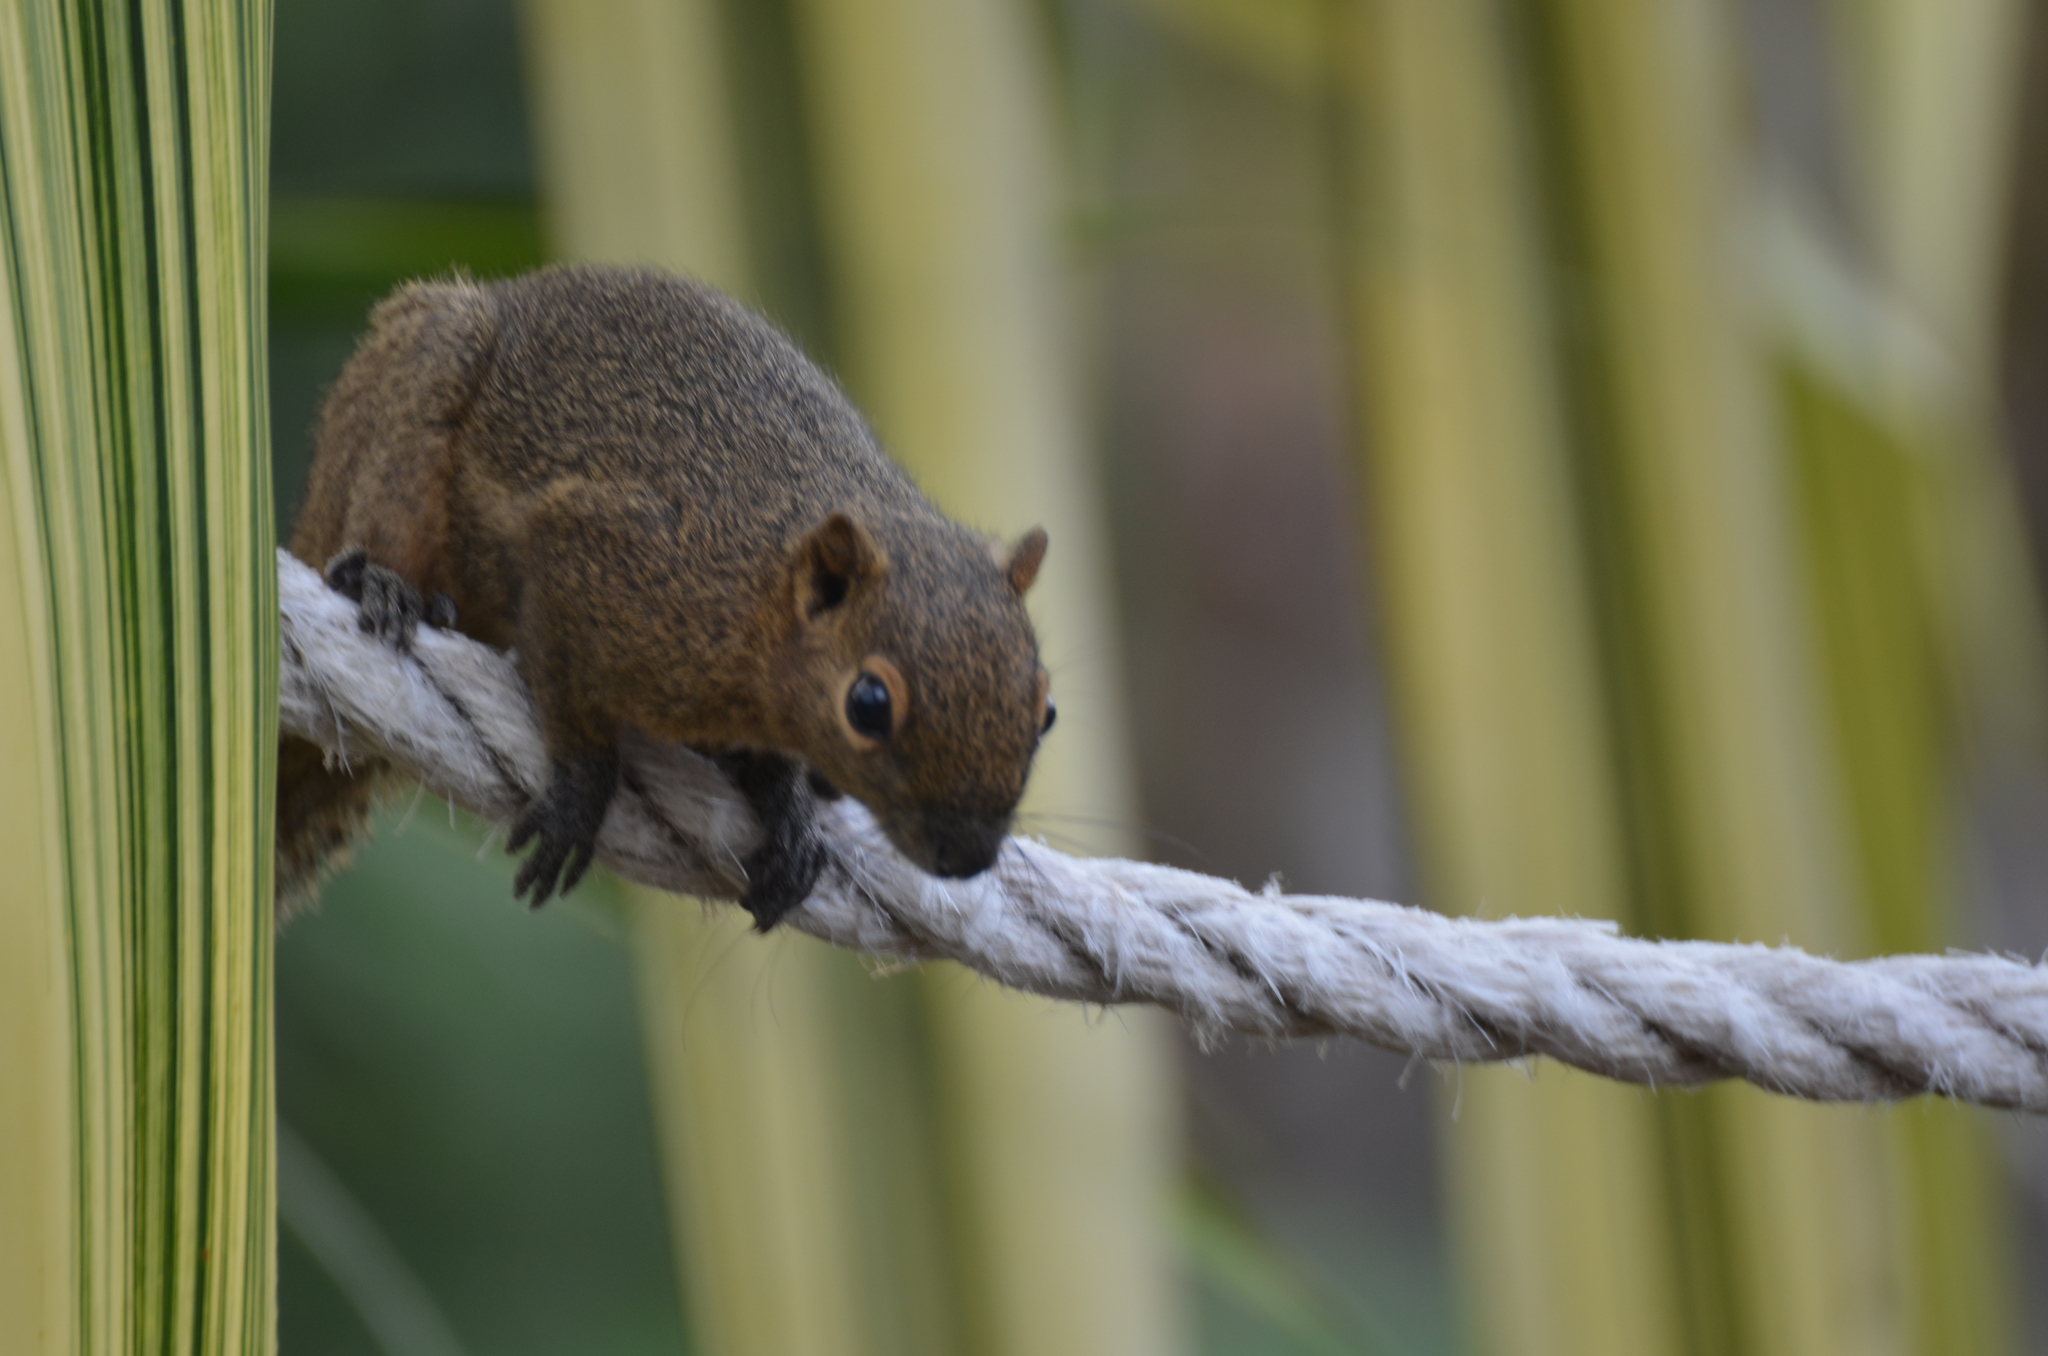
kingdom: Animalia
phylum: Chordata
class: Mammalia
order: Rodentia
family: Sciuridae
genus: Callosciurus
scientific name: Callosciurus notatus
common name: Plantain squirrel
